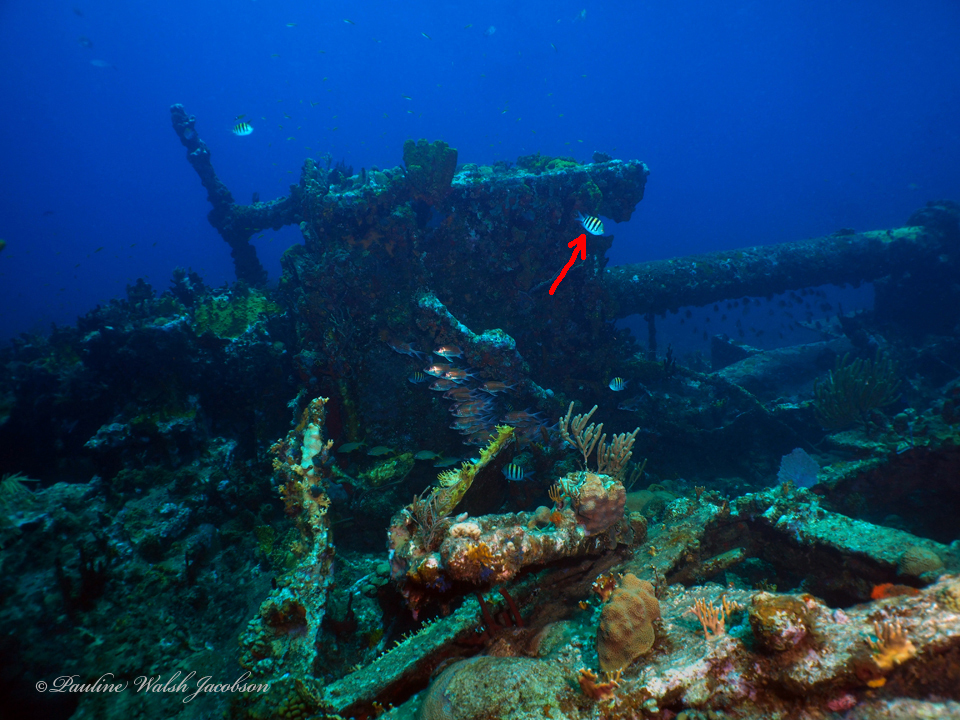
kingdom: Animalia
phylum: Chordata
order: Perciformes
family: Pomacentridae
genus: Abudefduf
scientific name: Abudefduf saxatilis
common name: Sergeant major
